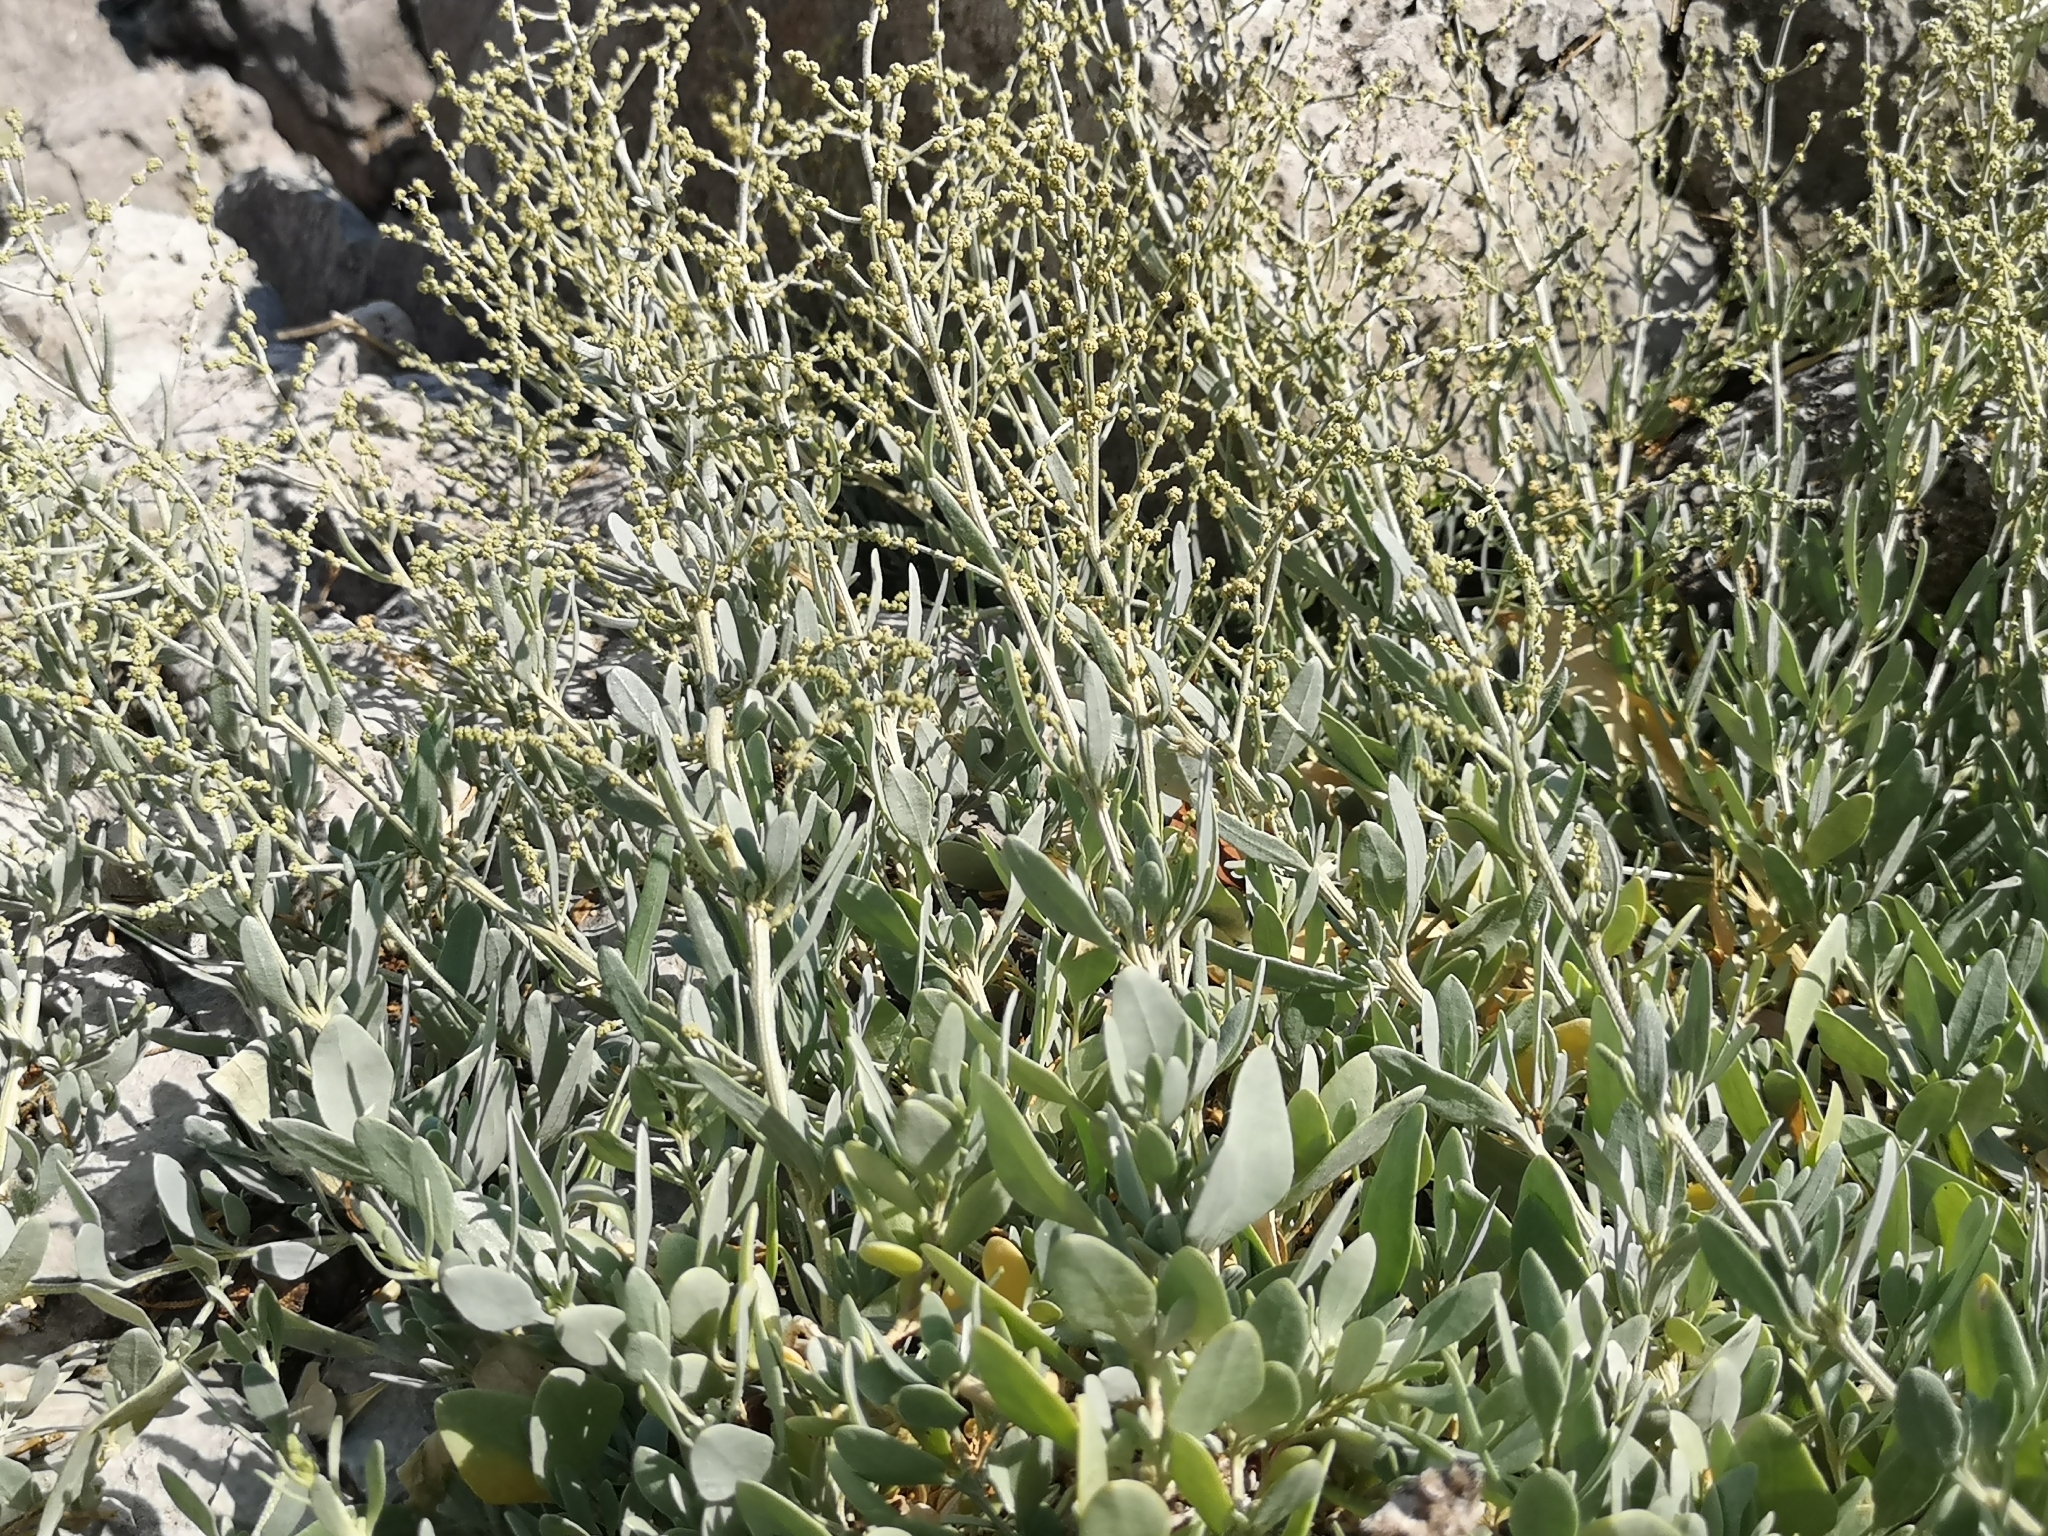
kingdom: Plantae
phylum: Tracheophyta
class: Magnoliopsida
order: Caryophyllales
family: Amaranthaceae
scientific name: Amaranthaceae
